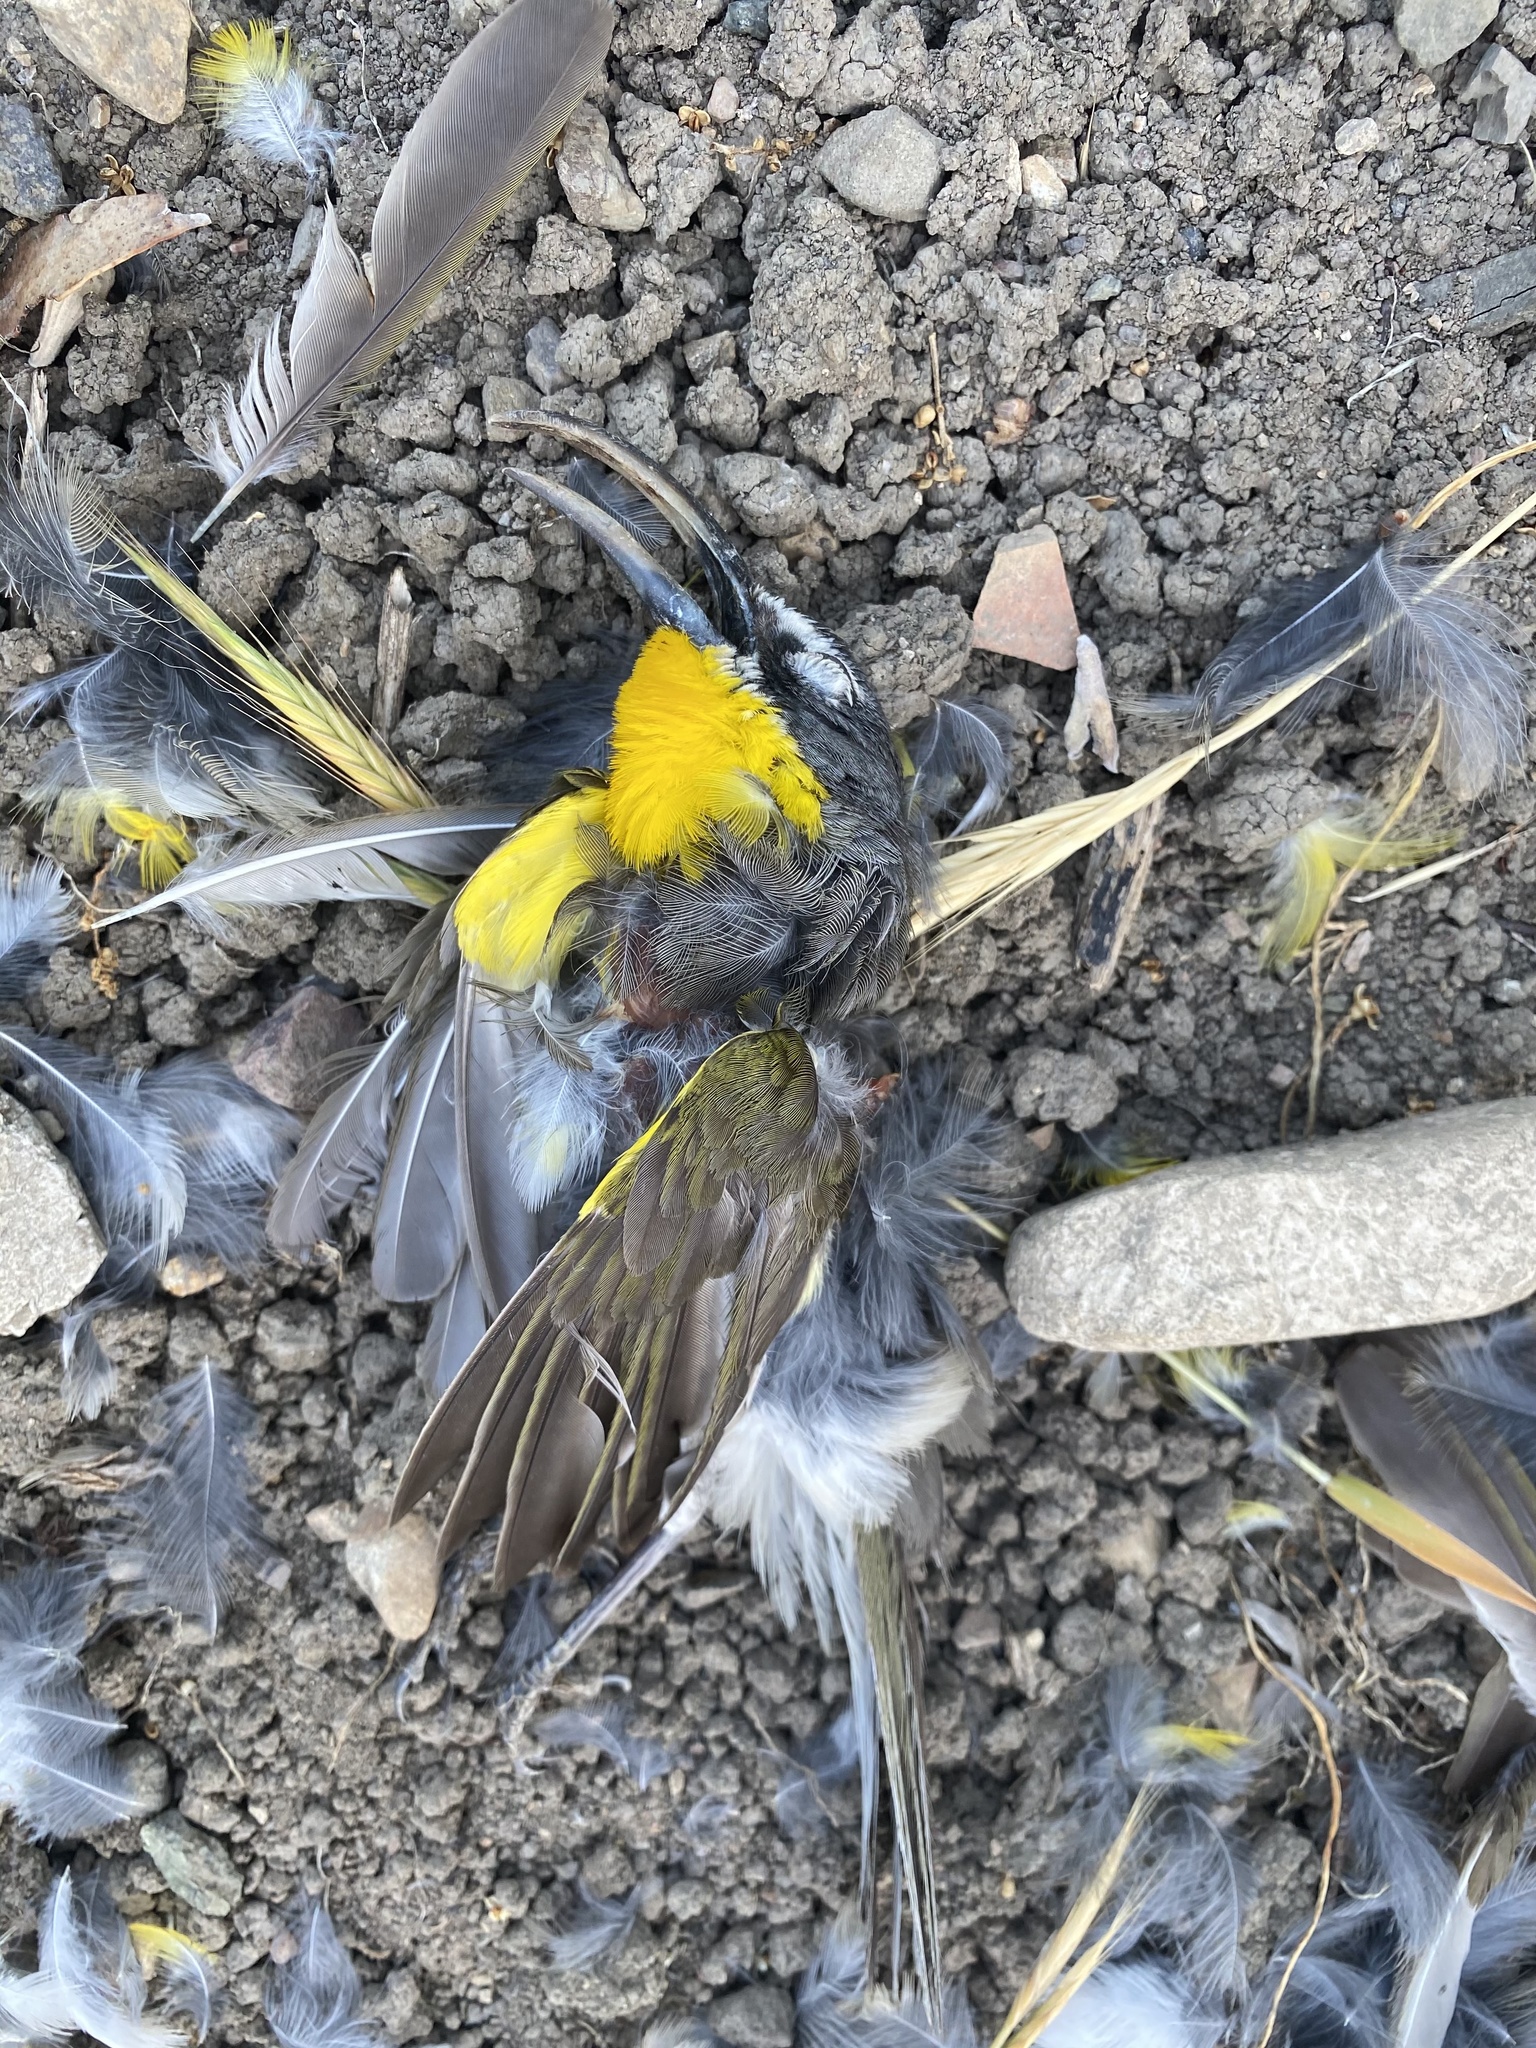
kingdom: Animalia
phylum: Chordata
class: Aves
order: Passeriformes
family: Parulidae
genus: Icteria
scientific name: Icteria virens
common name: Yellow-breasted chat
